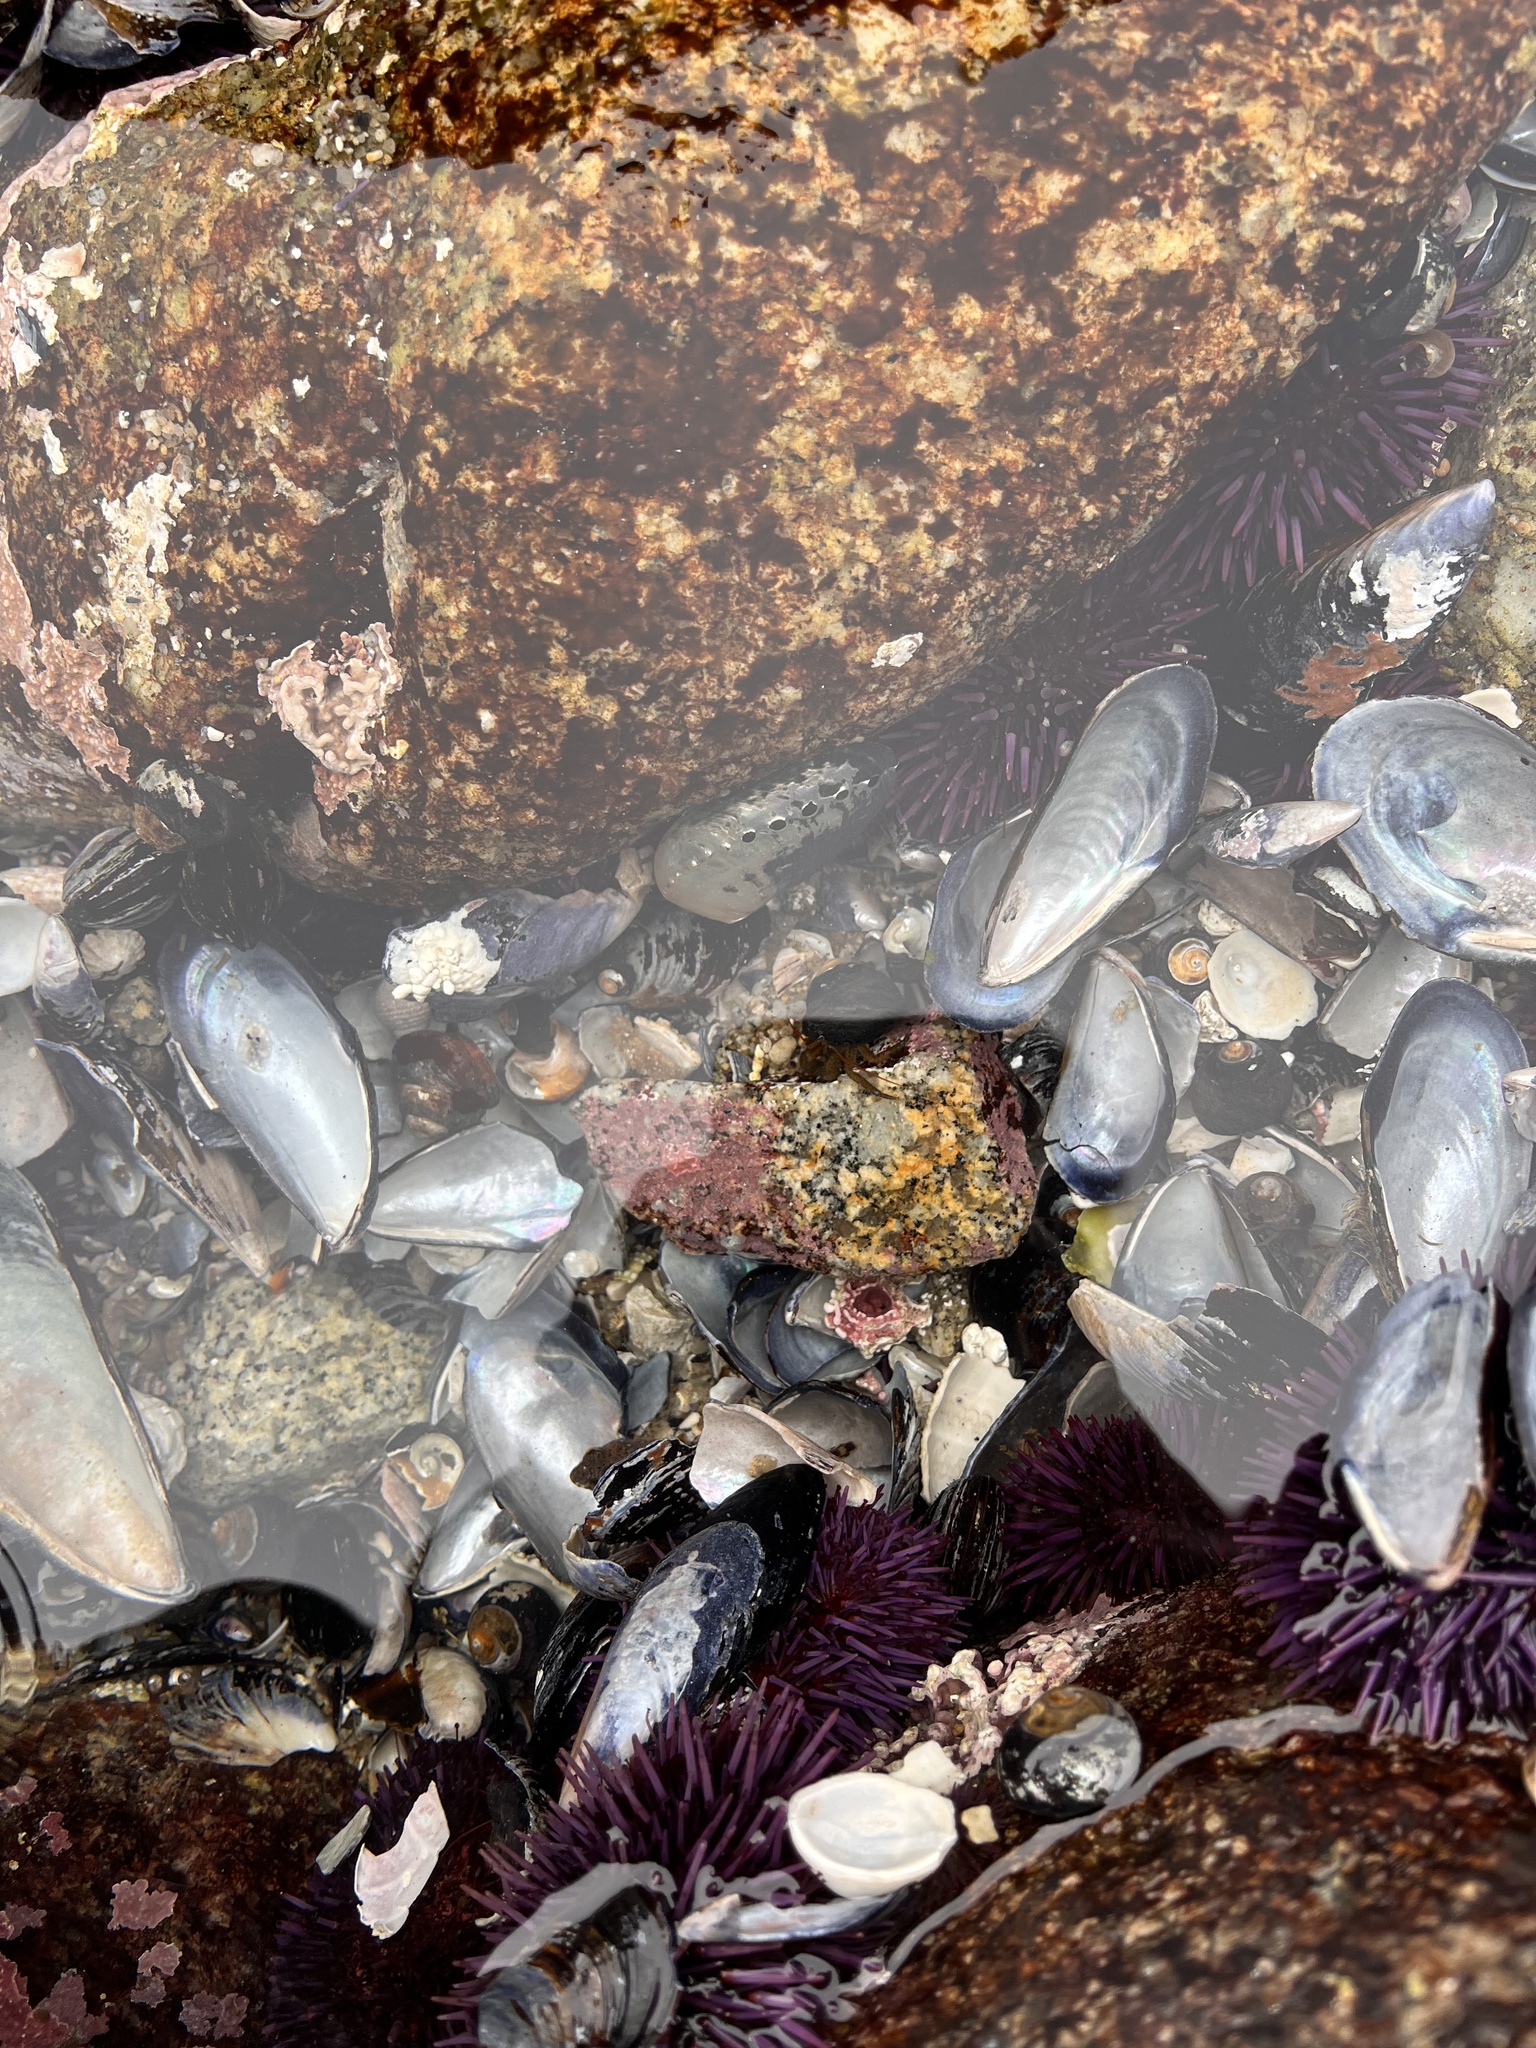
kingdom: Animalia
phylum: Mollusca
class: Gastropoda
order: Lepetellida
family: Haliotidae
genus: Haliotis
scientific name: Haliotis cracherodii
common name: Black abalone
